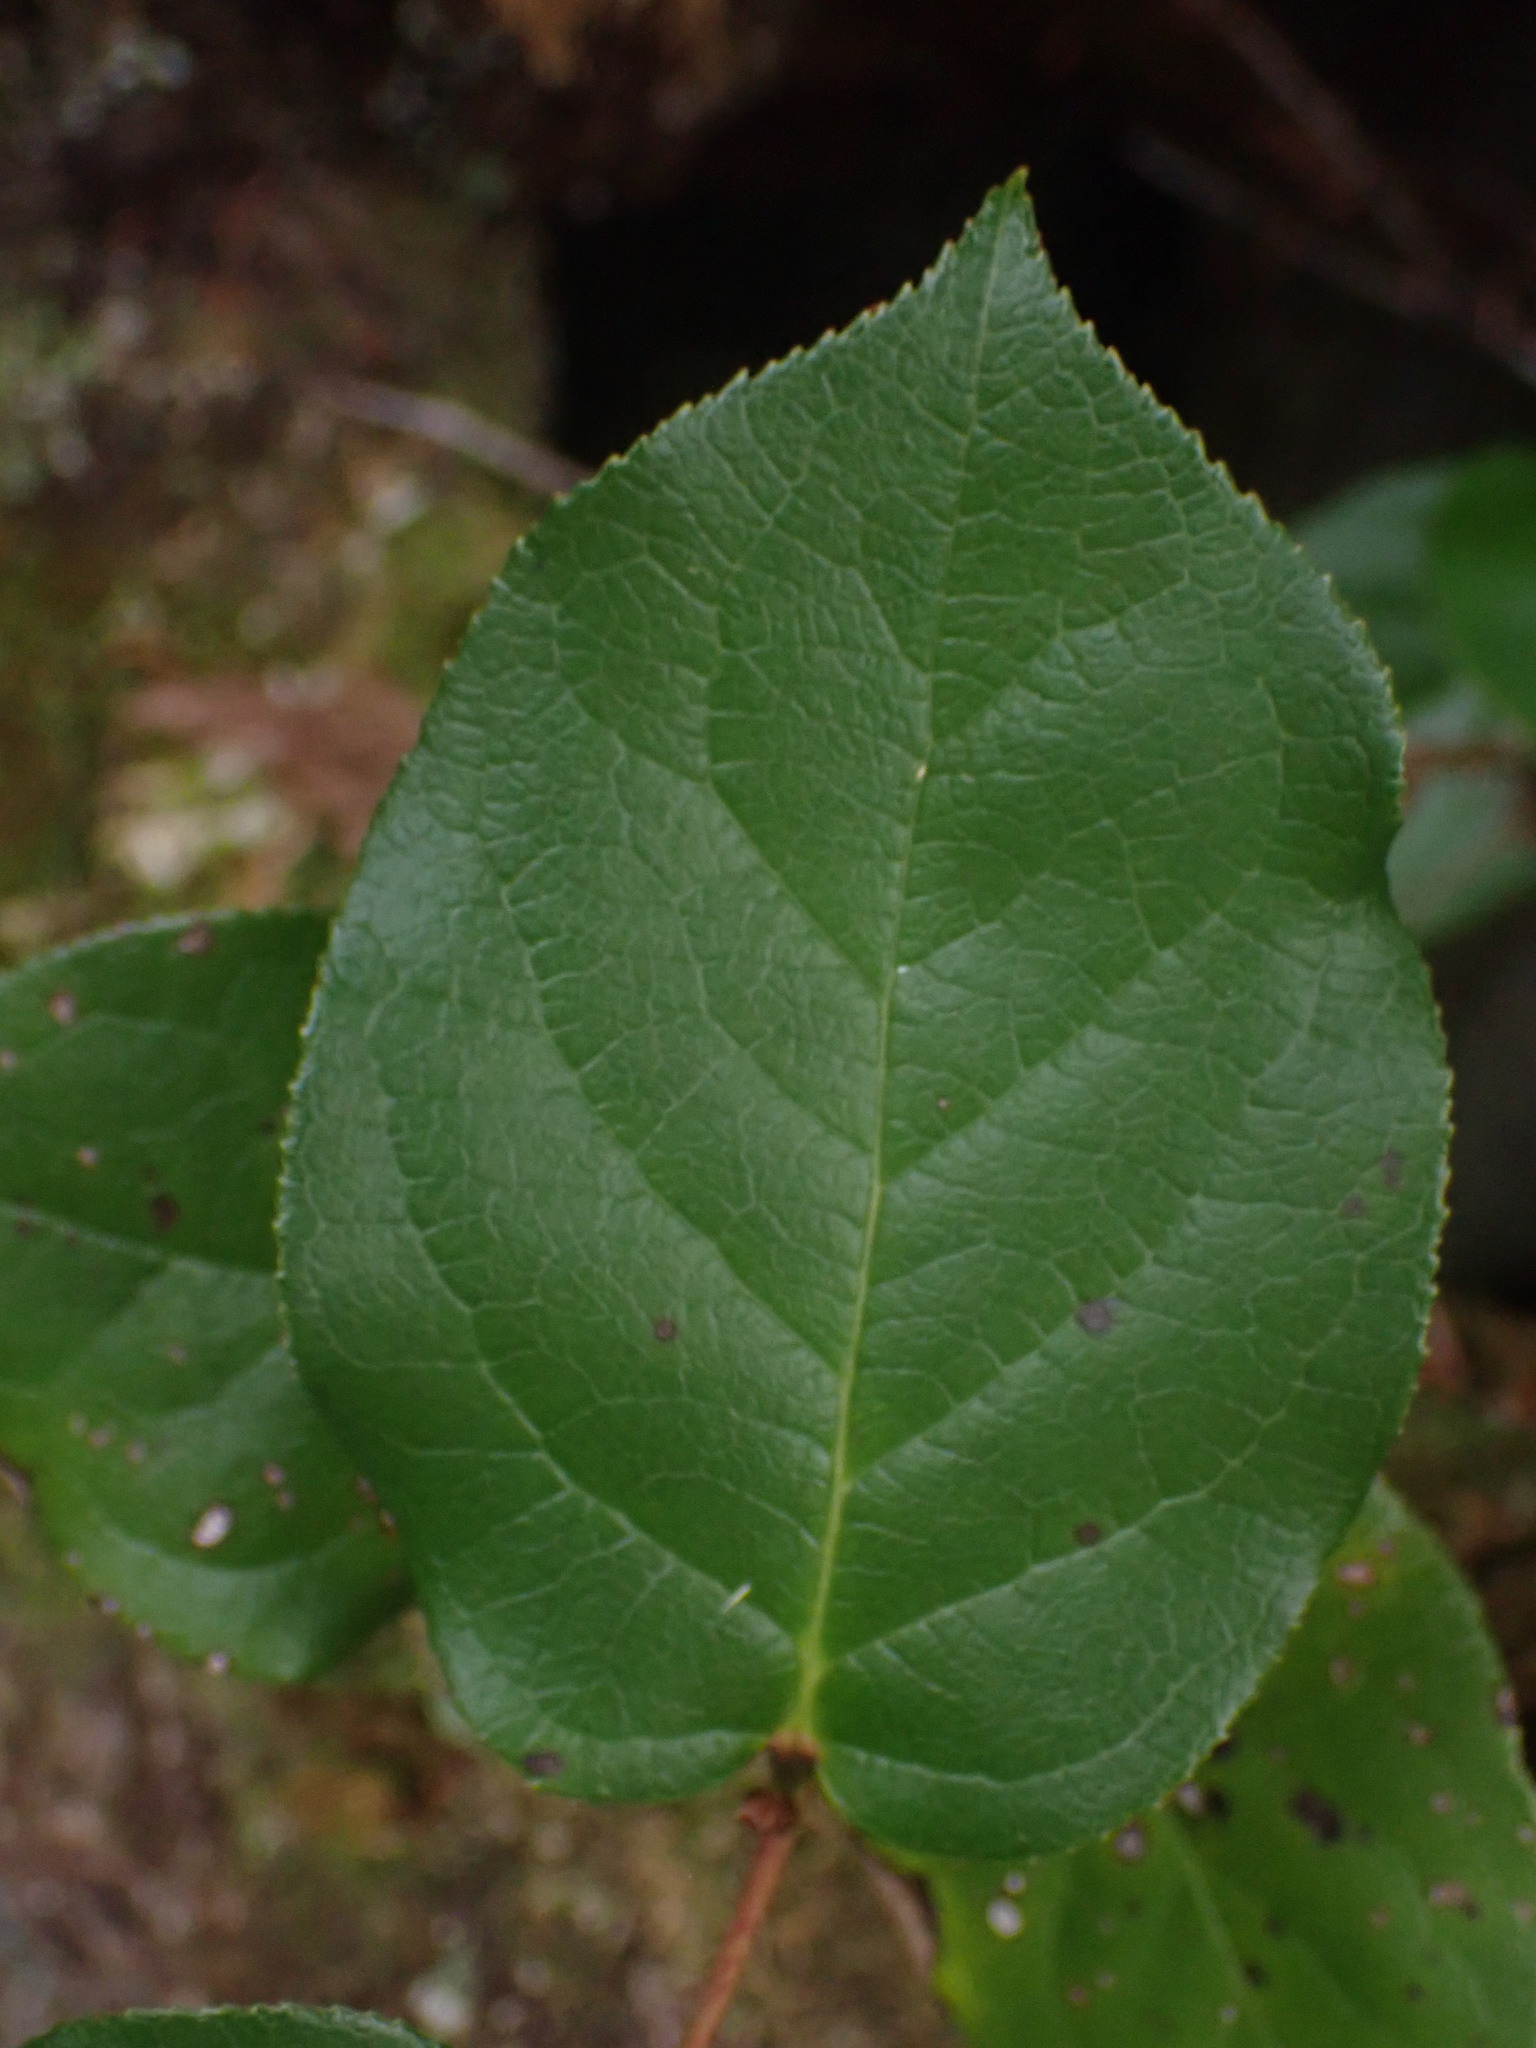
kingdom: Plantae
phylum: Tracheophyta
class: Magnoliopsida
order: Ericales
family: Ericaceae
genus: Gaultheria
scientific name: Gaultheria shallon
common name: Shallon
